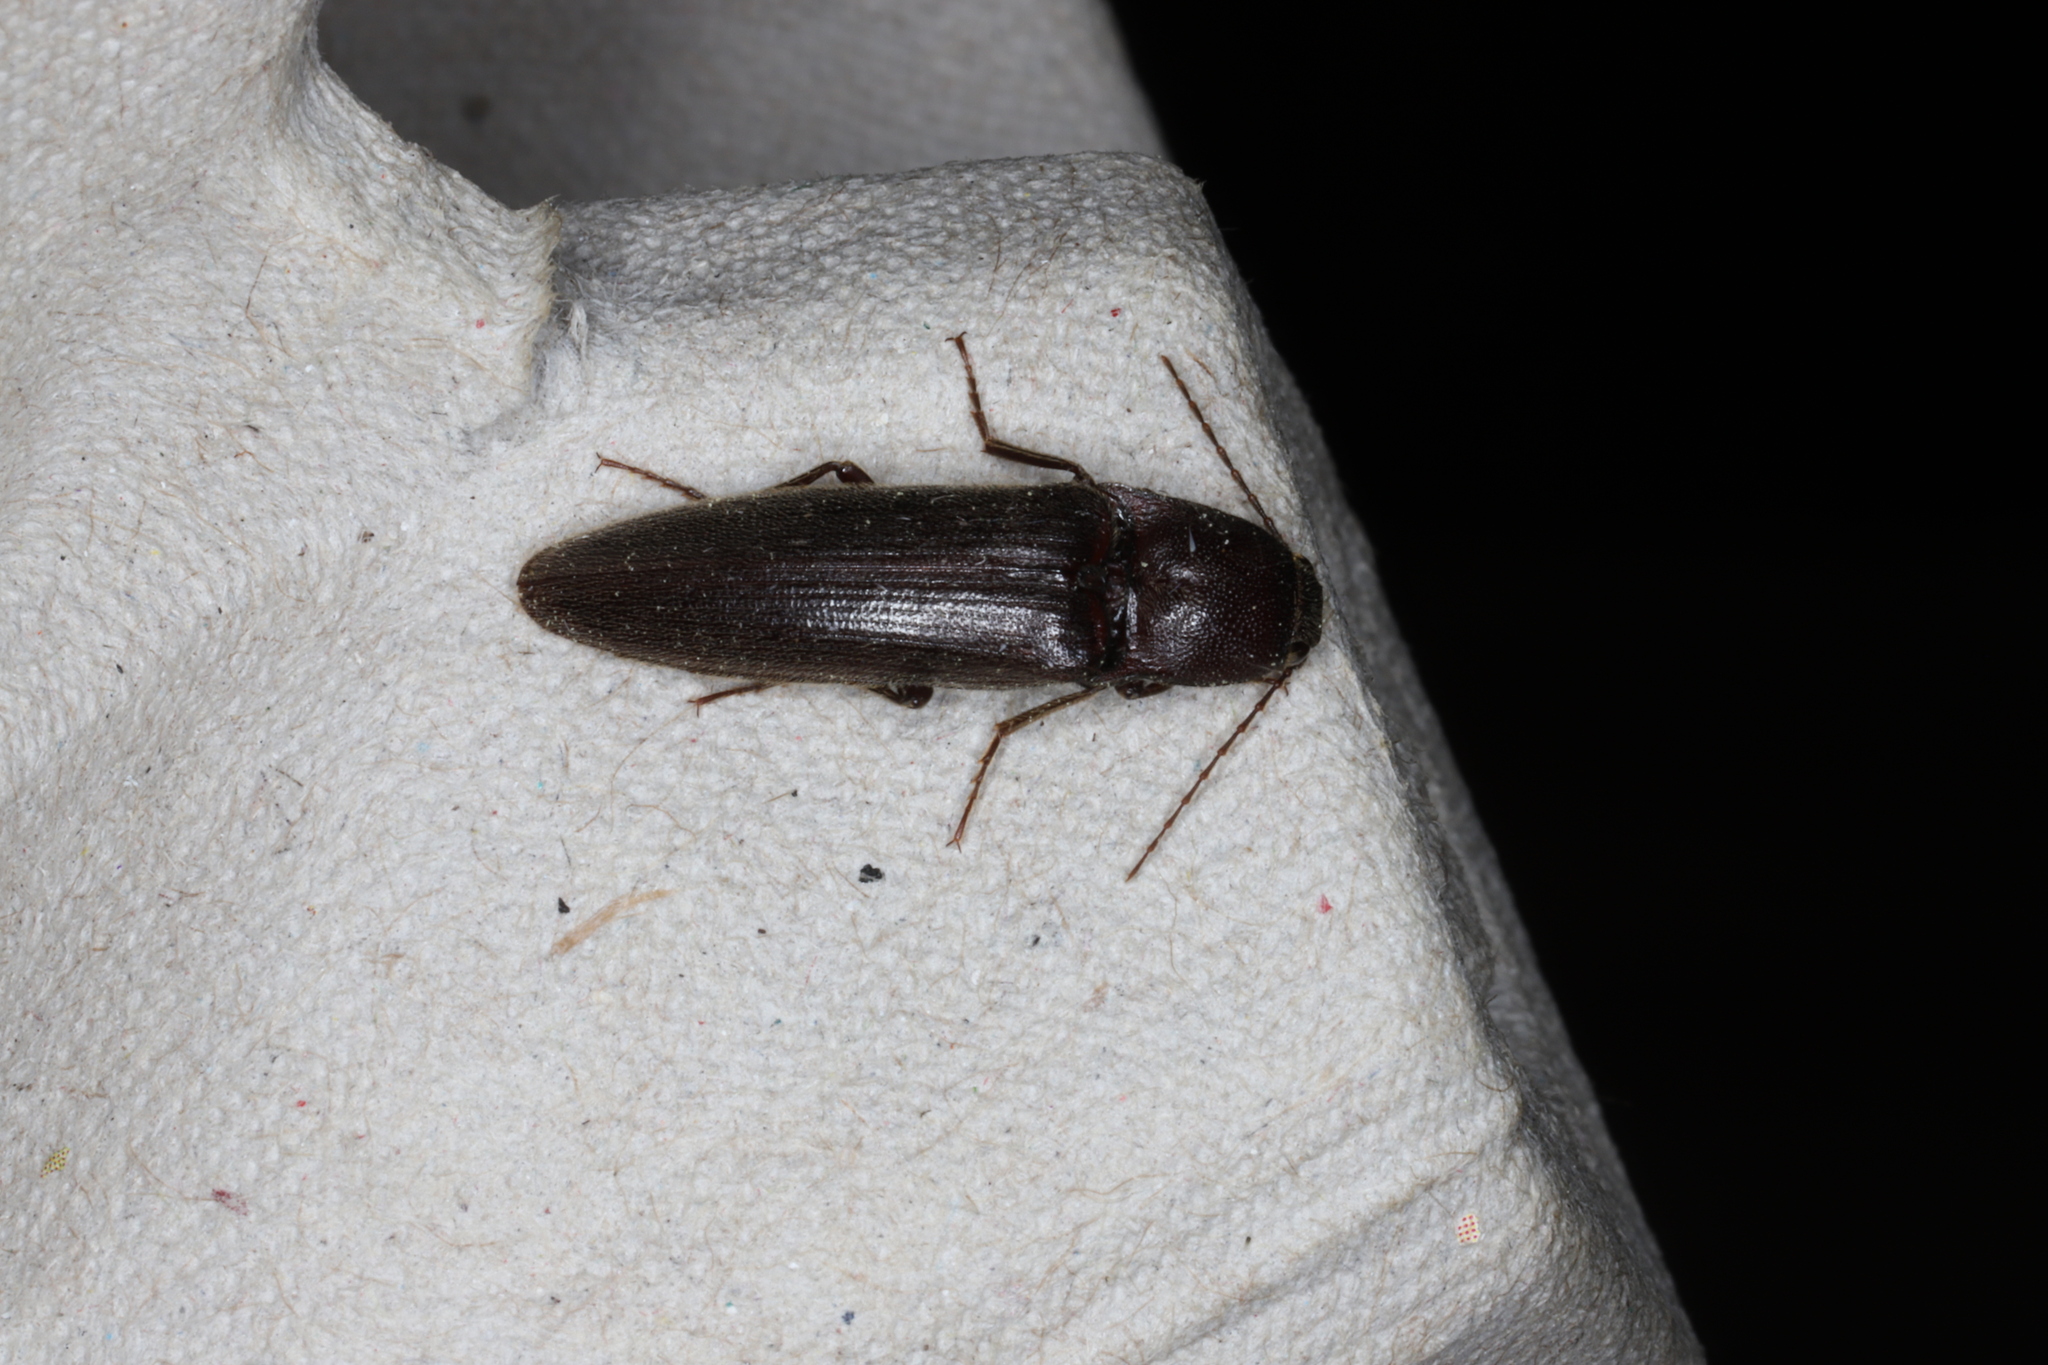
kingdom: Animalia
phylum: Arthropoda
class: Insecta
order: Coleoptera
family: Elateridae
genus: Melanotus
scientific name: Melanotus castanipes
